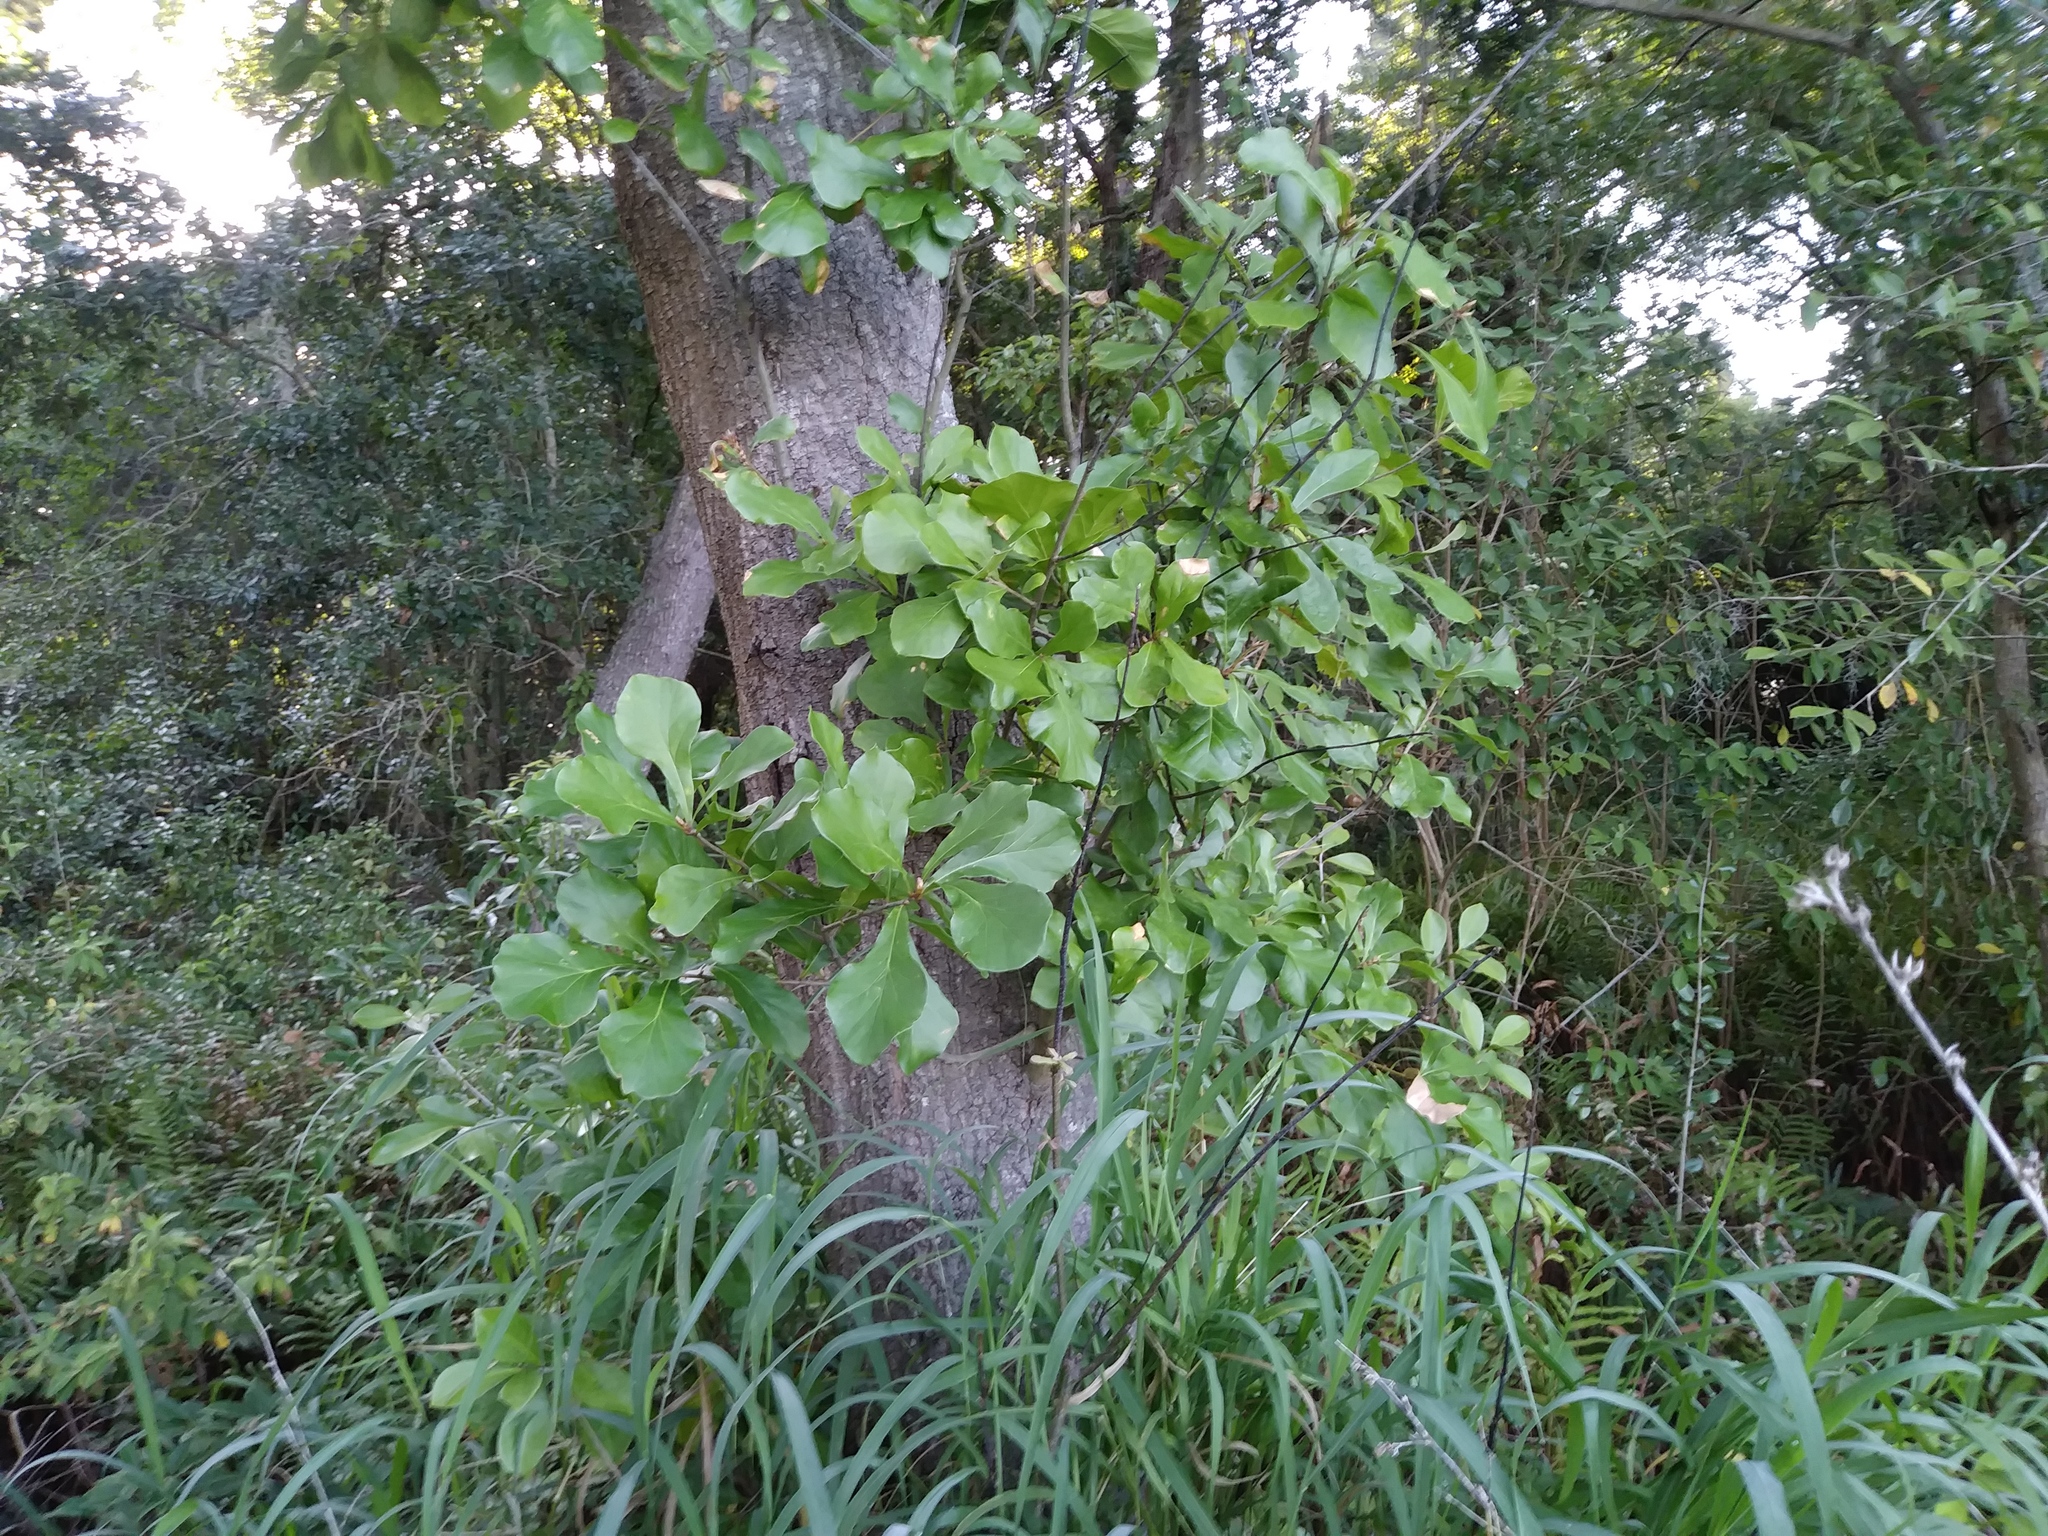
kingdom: Plantae
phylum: Tracheophyta
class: Magnoliopsida
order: Fagales
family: Fagaceae
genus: Quercus
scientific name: Quercus nigra
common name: Water oak
